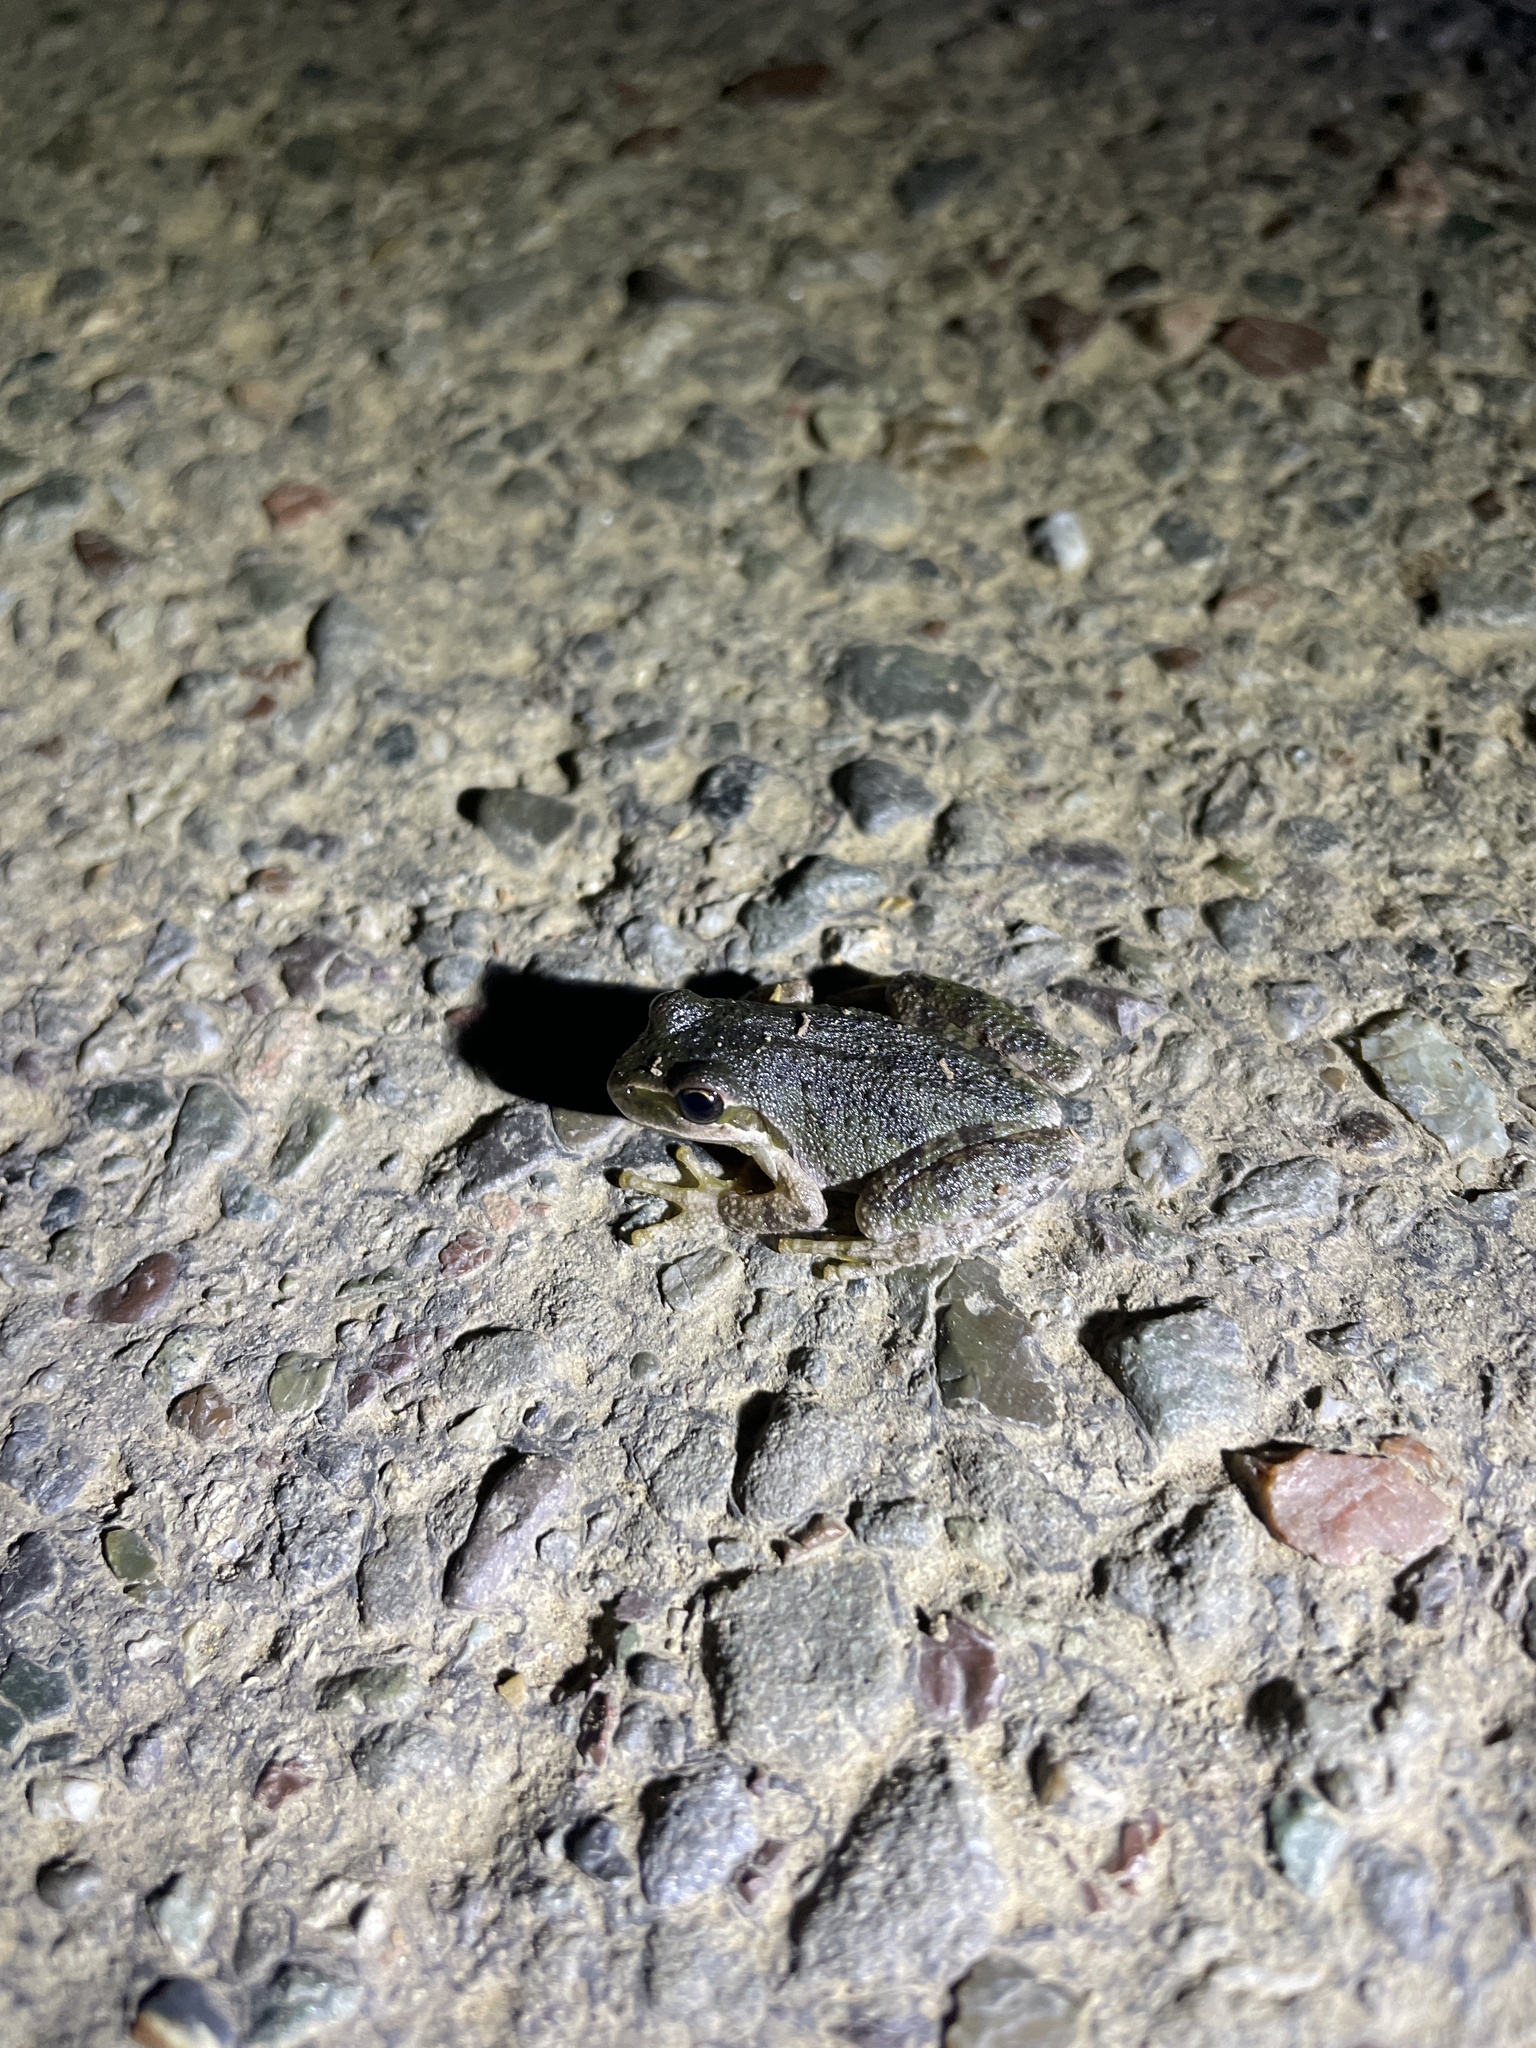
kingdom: Animalia
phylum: Chordata
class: Amphibia
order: Anura
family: Hylidae
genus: Pseudacris
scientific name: Pseudacris regilla
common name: Pacific chorus frog
